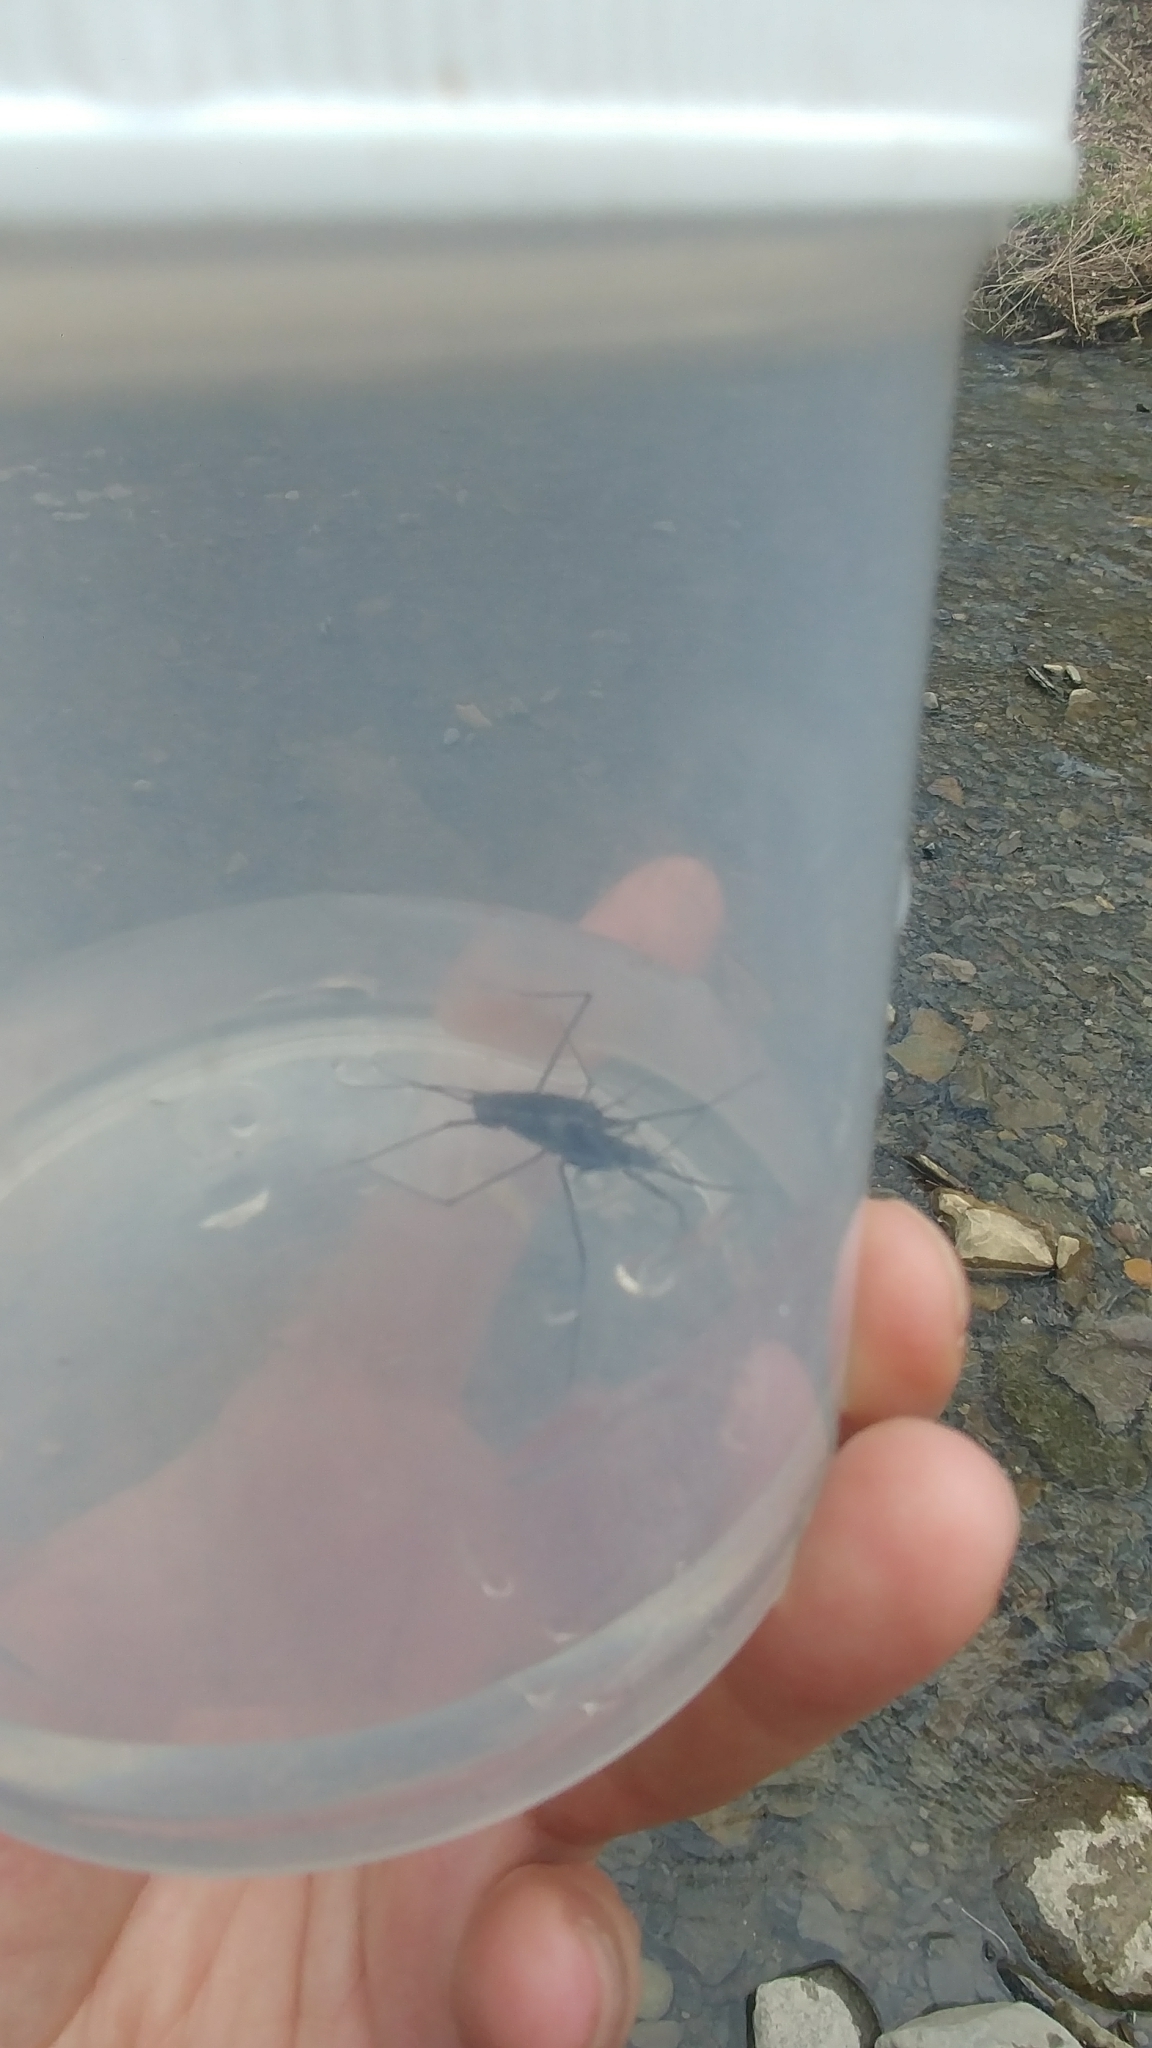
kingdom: Animalia
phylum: Arthropoda
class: Insecta
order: Hemiptera
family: Gerridae
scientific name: Gerridae
